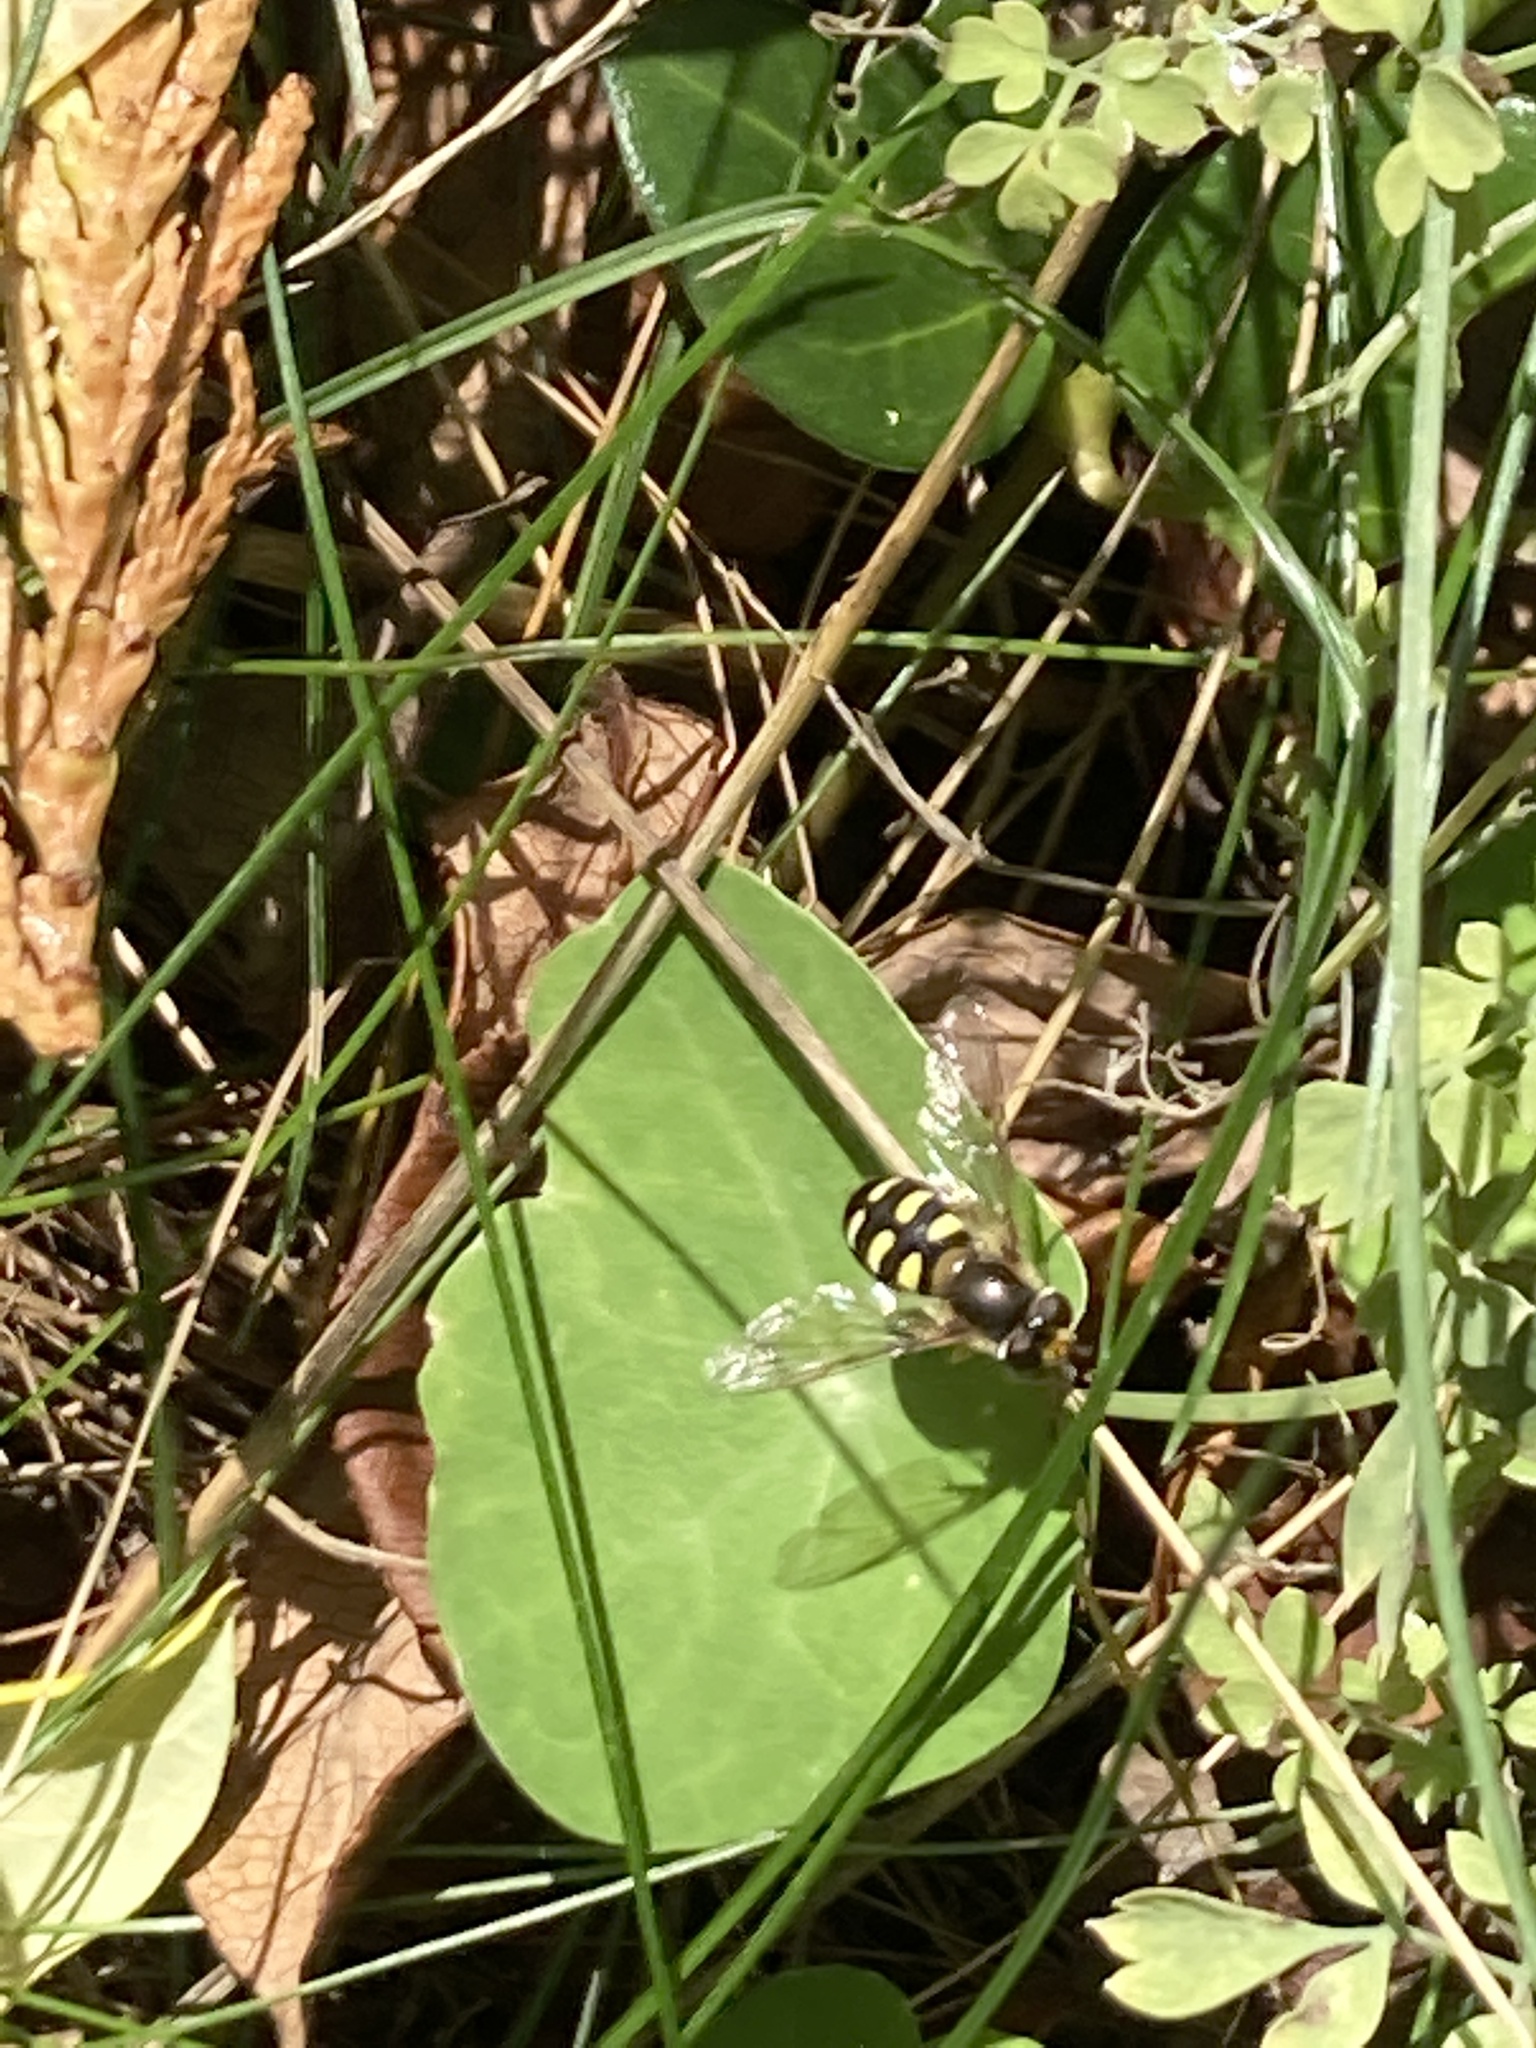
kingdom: Animalia
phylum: Arthropoda
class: Insecta
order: Diptera
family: Syrphidae
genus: Eupeodes
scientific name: Eupeodes luniger
